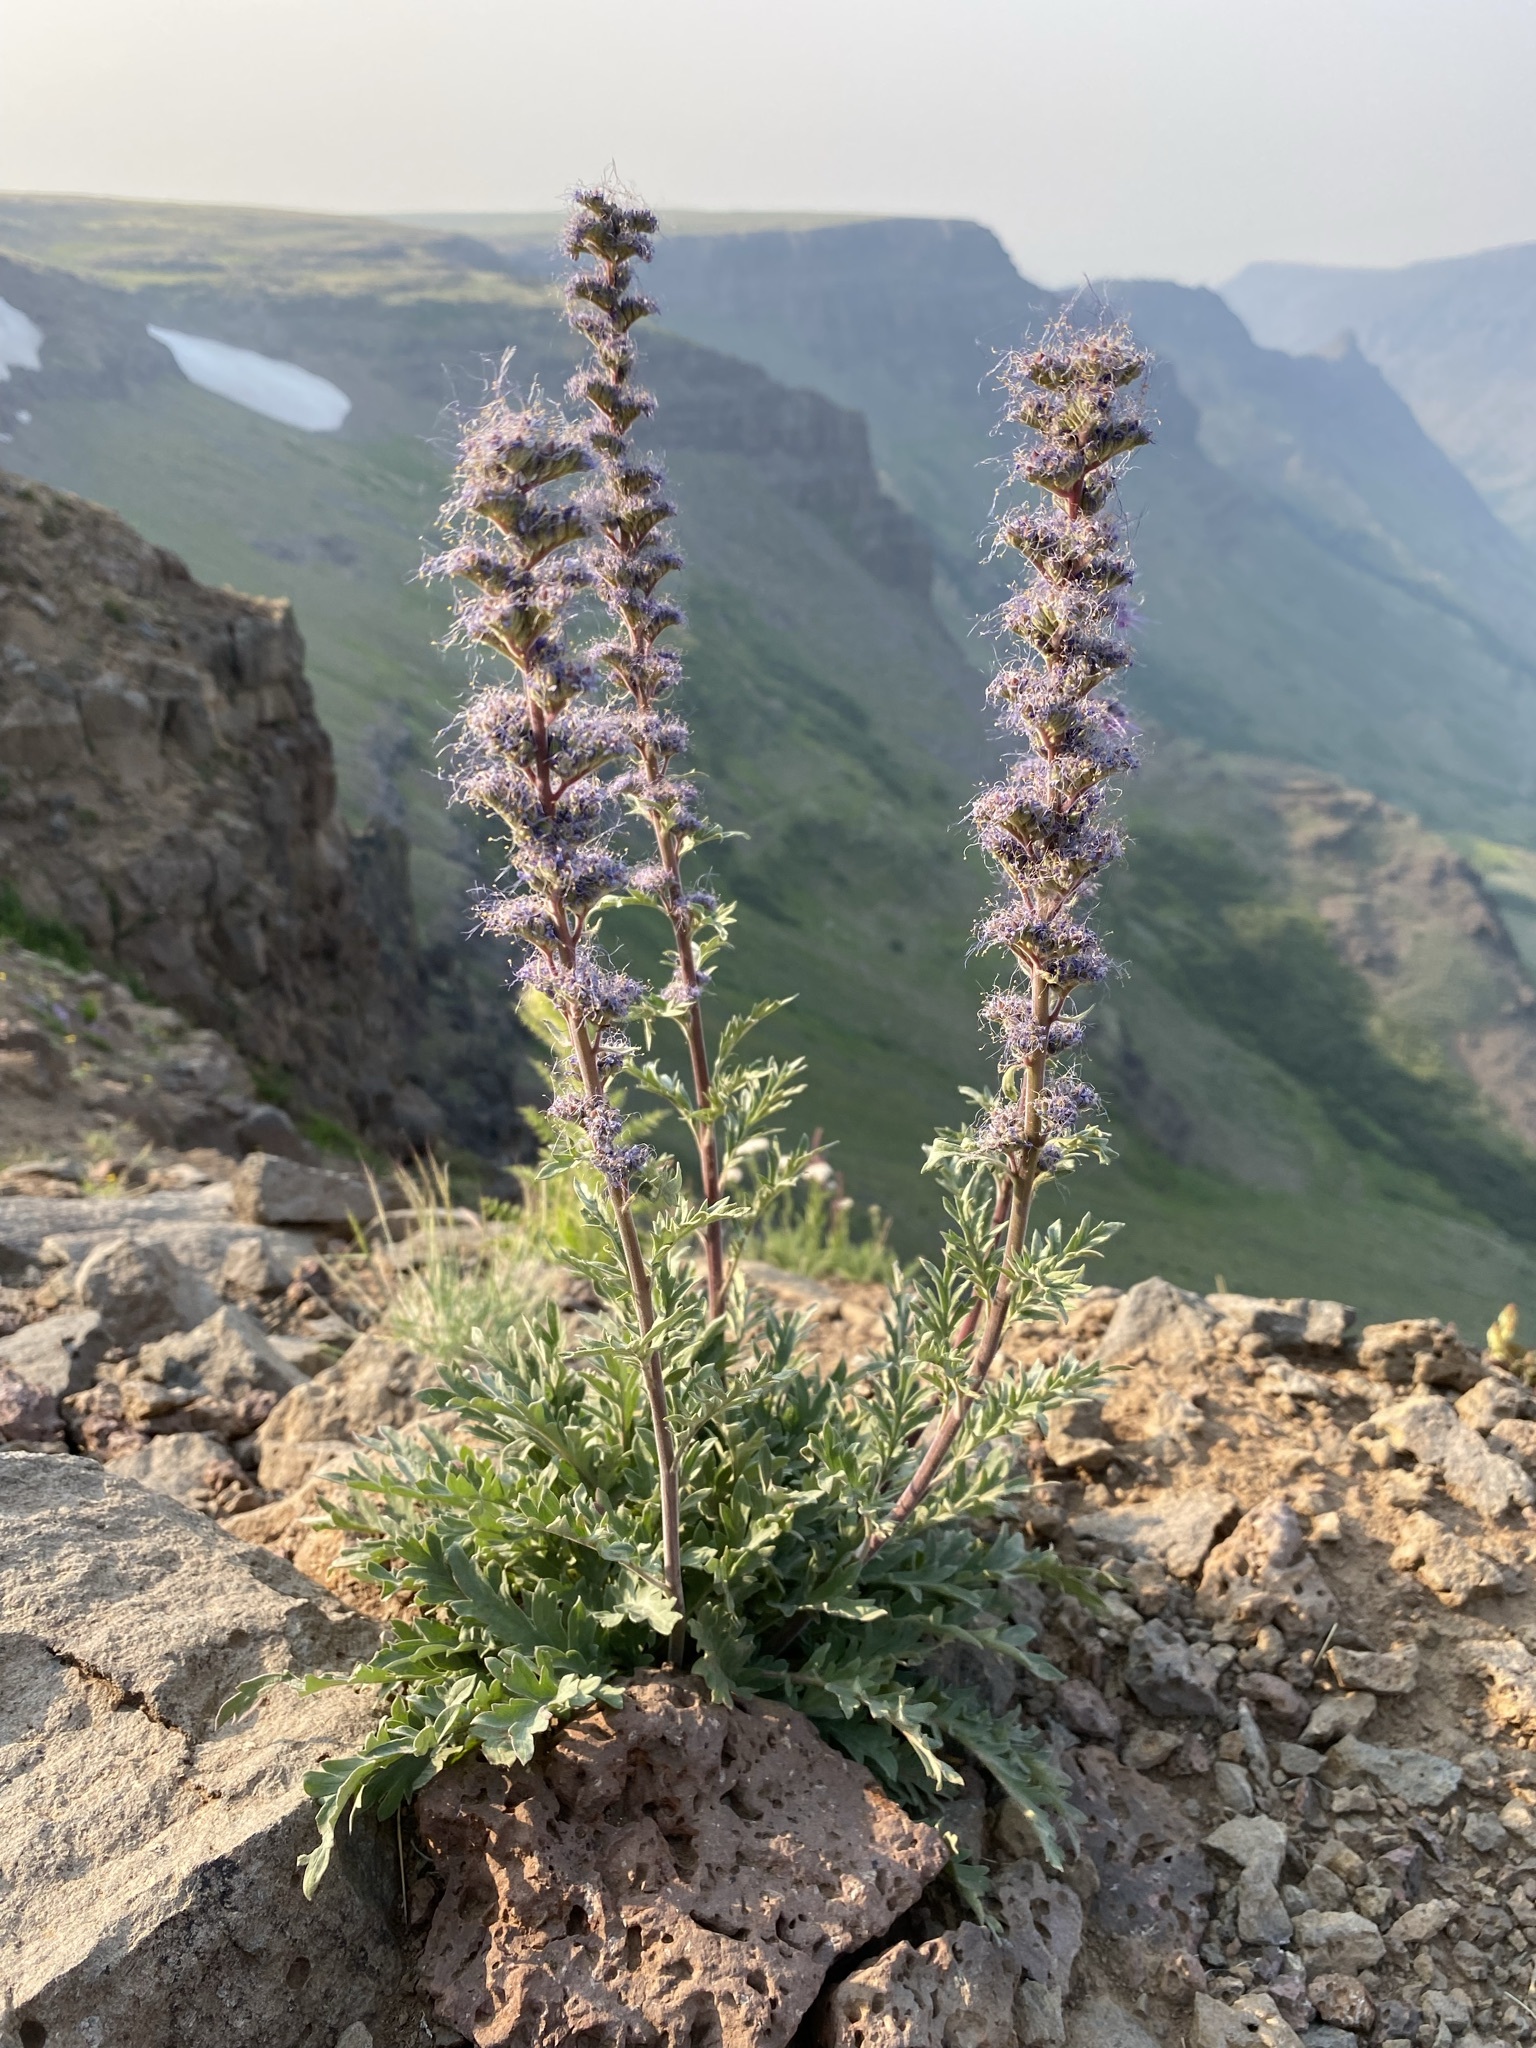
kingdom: Plantae
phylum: Tracheophyta
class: Magnoliopsida
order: Boraginales
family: Hydrophyllaceae
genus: Phacelia
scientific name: Phacelia sericea
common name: Silky phacelia
